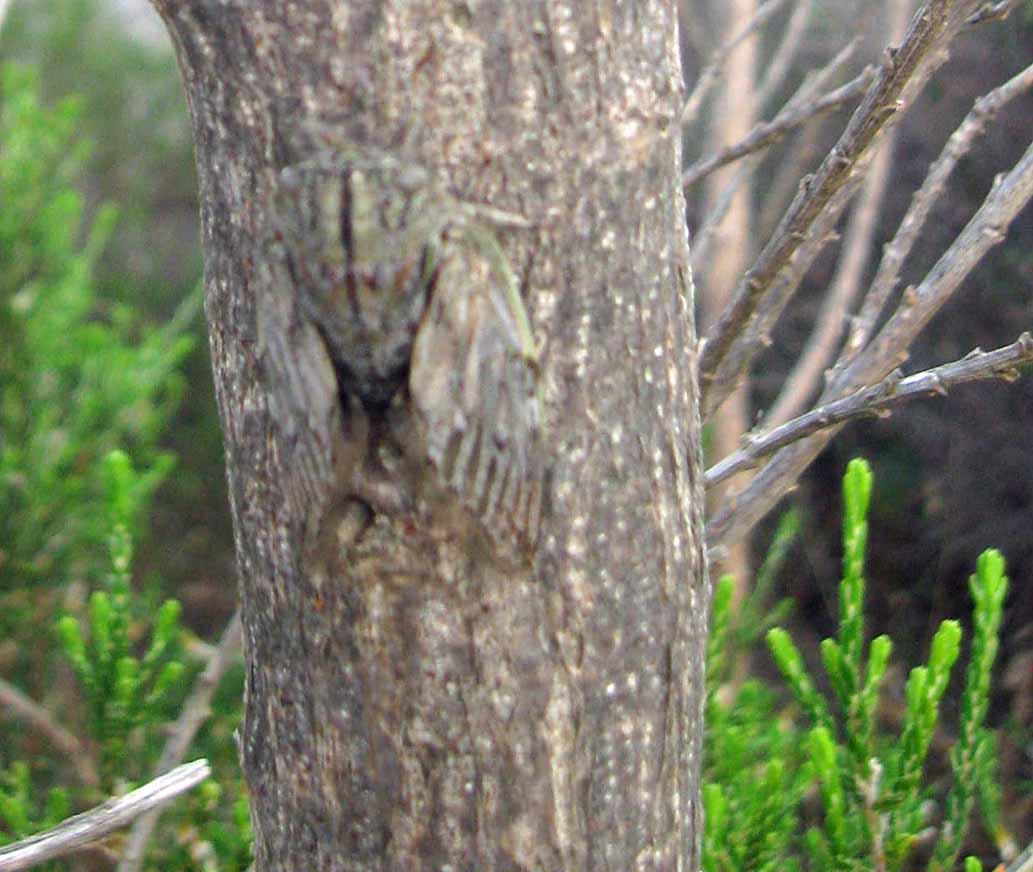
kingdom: Animalia
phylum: Arthropoda
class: Insecta
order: Hemiptera
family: Cicadidae
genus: Platypleura
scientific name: Platypleura capensis
